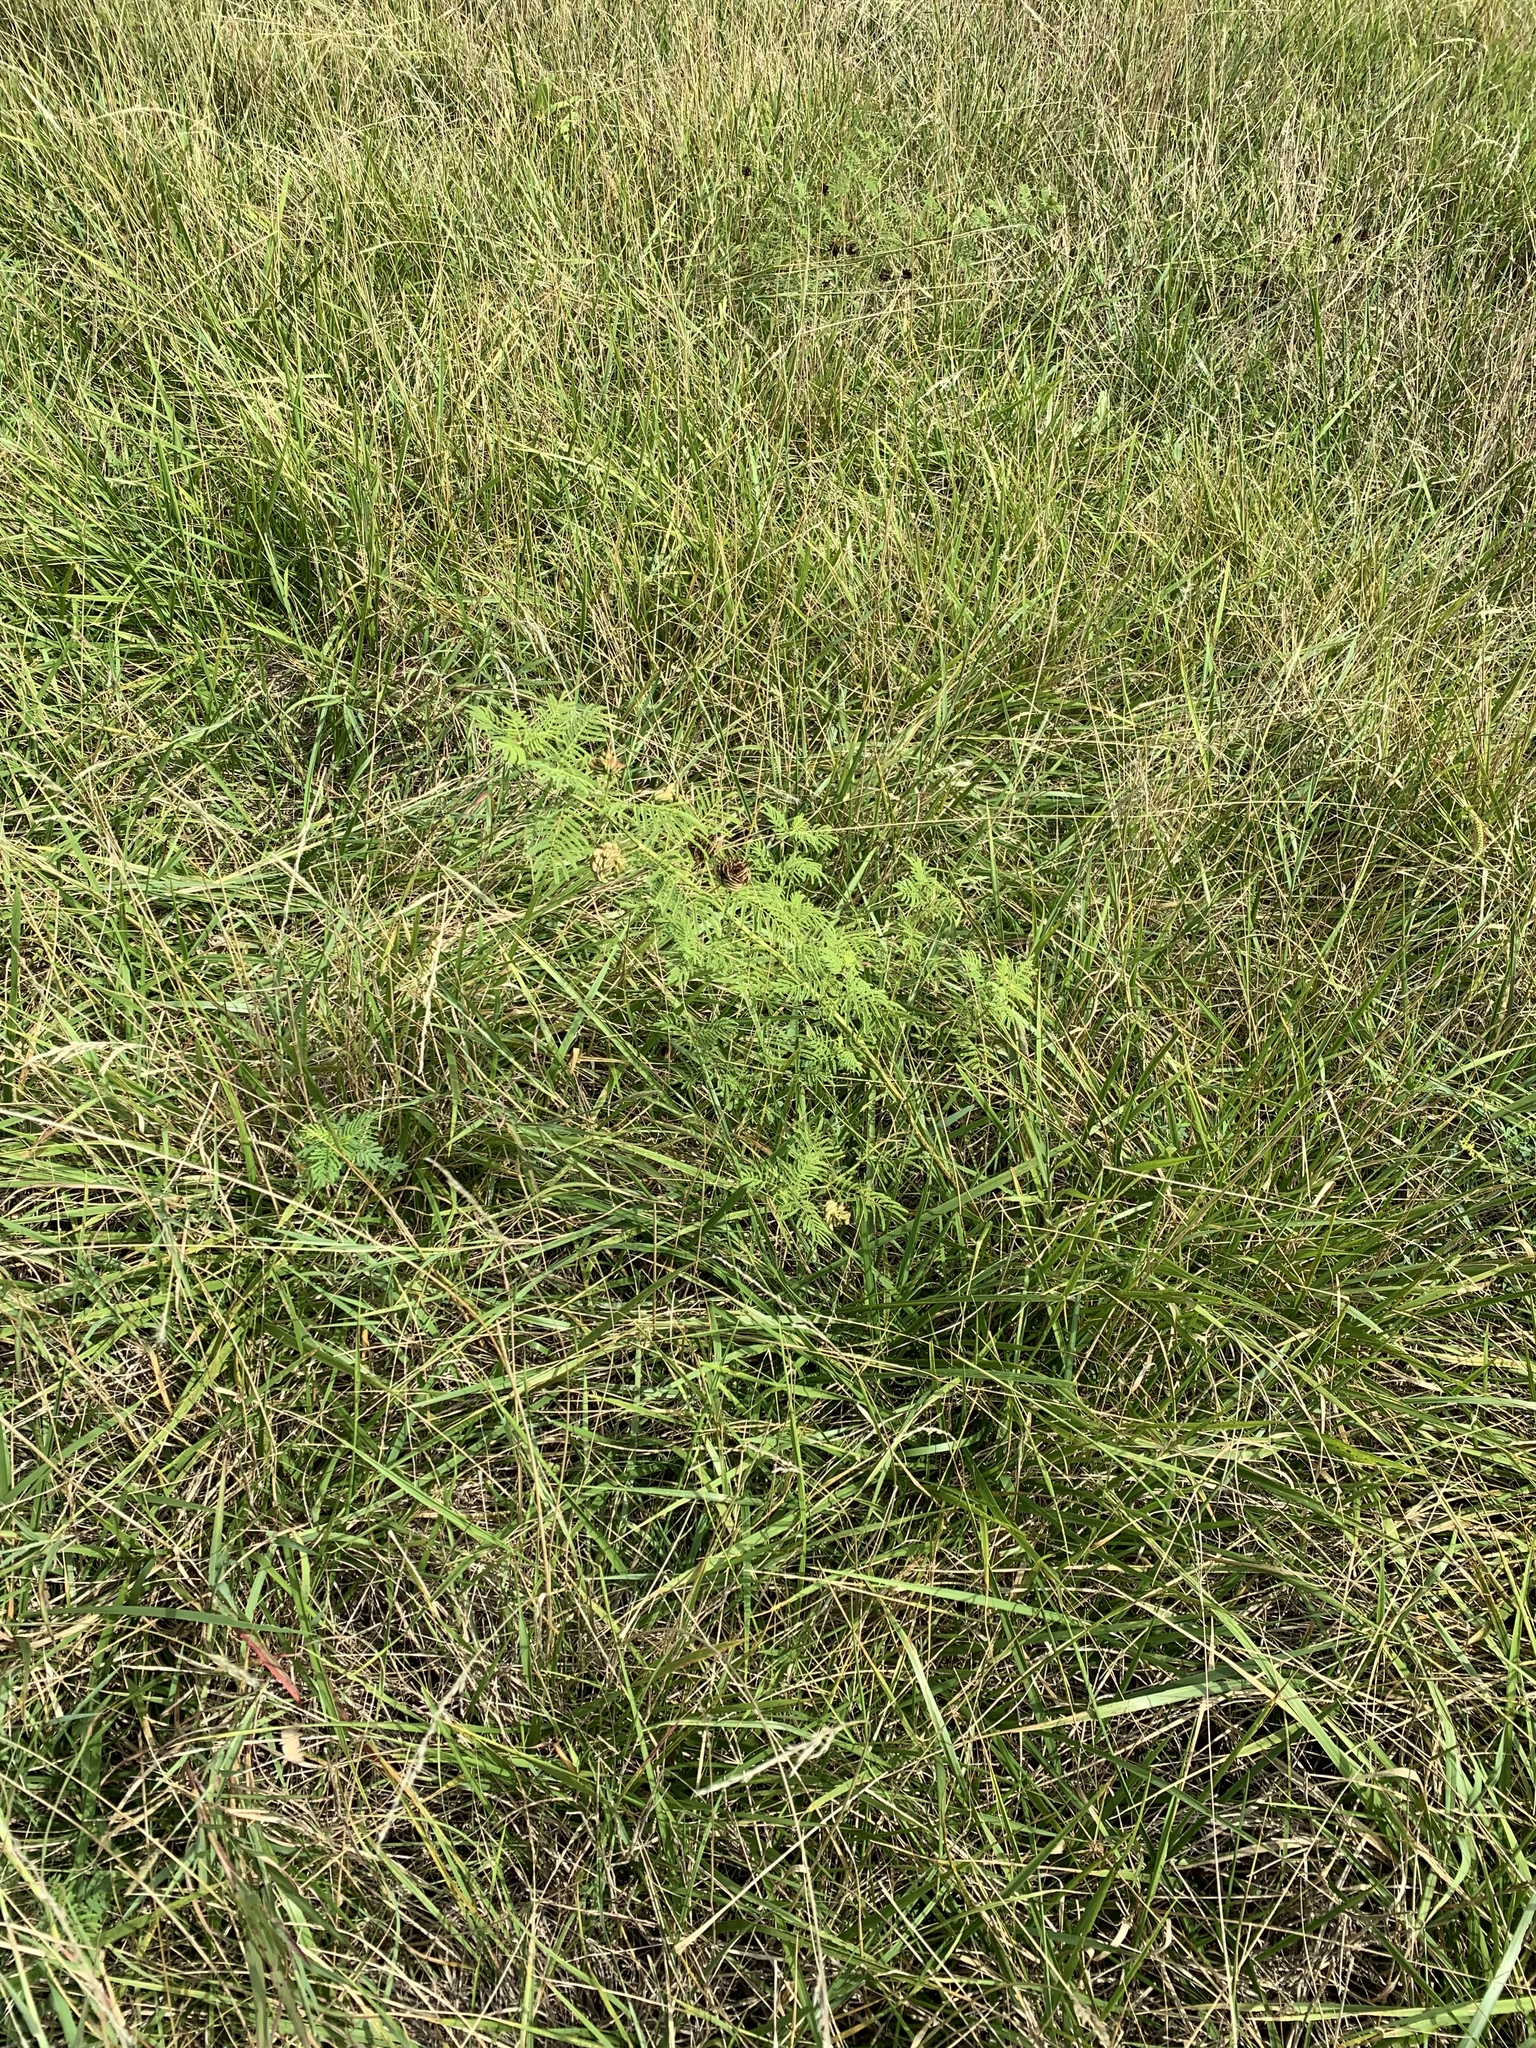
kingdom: Plantae
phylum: Tracheophyta
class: Magnoliopsida
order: Fabales
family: Fabaceae
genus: Desmanthus
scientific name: Desmanthus illinoensis
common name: Illinois bundle-flower
